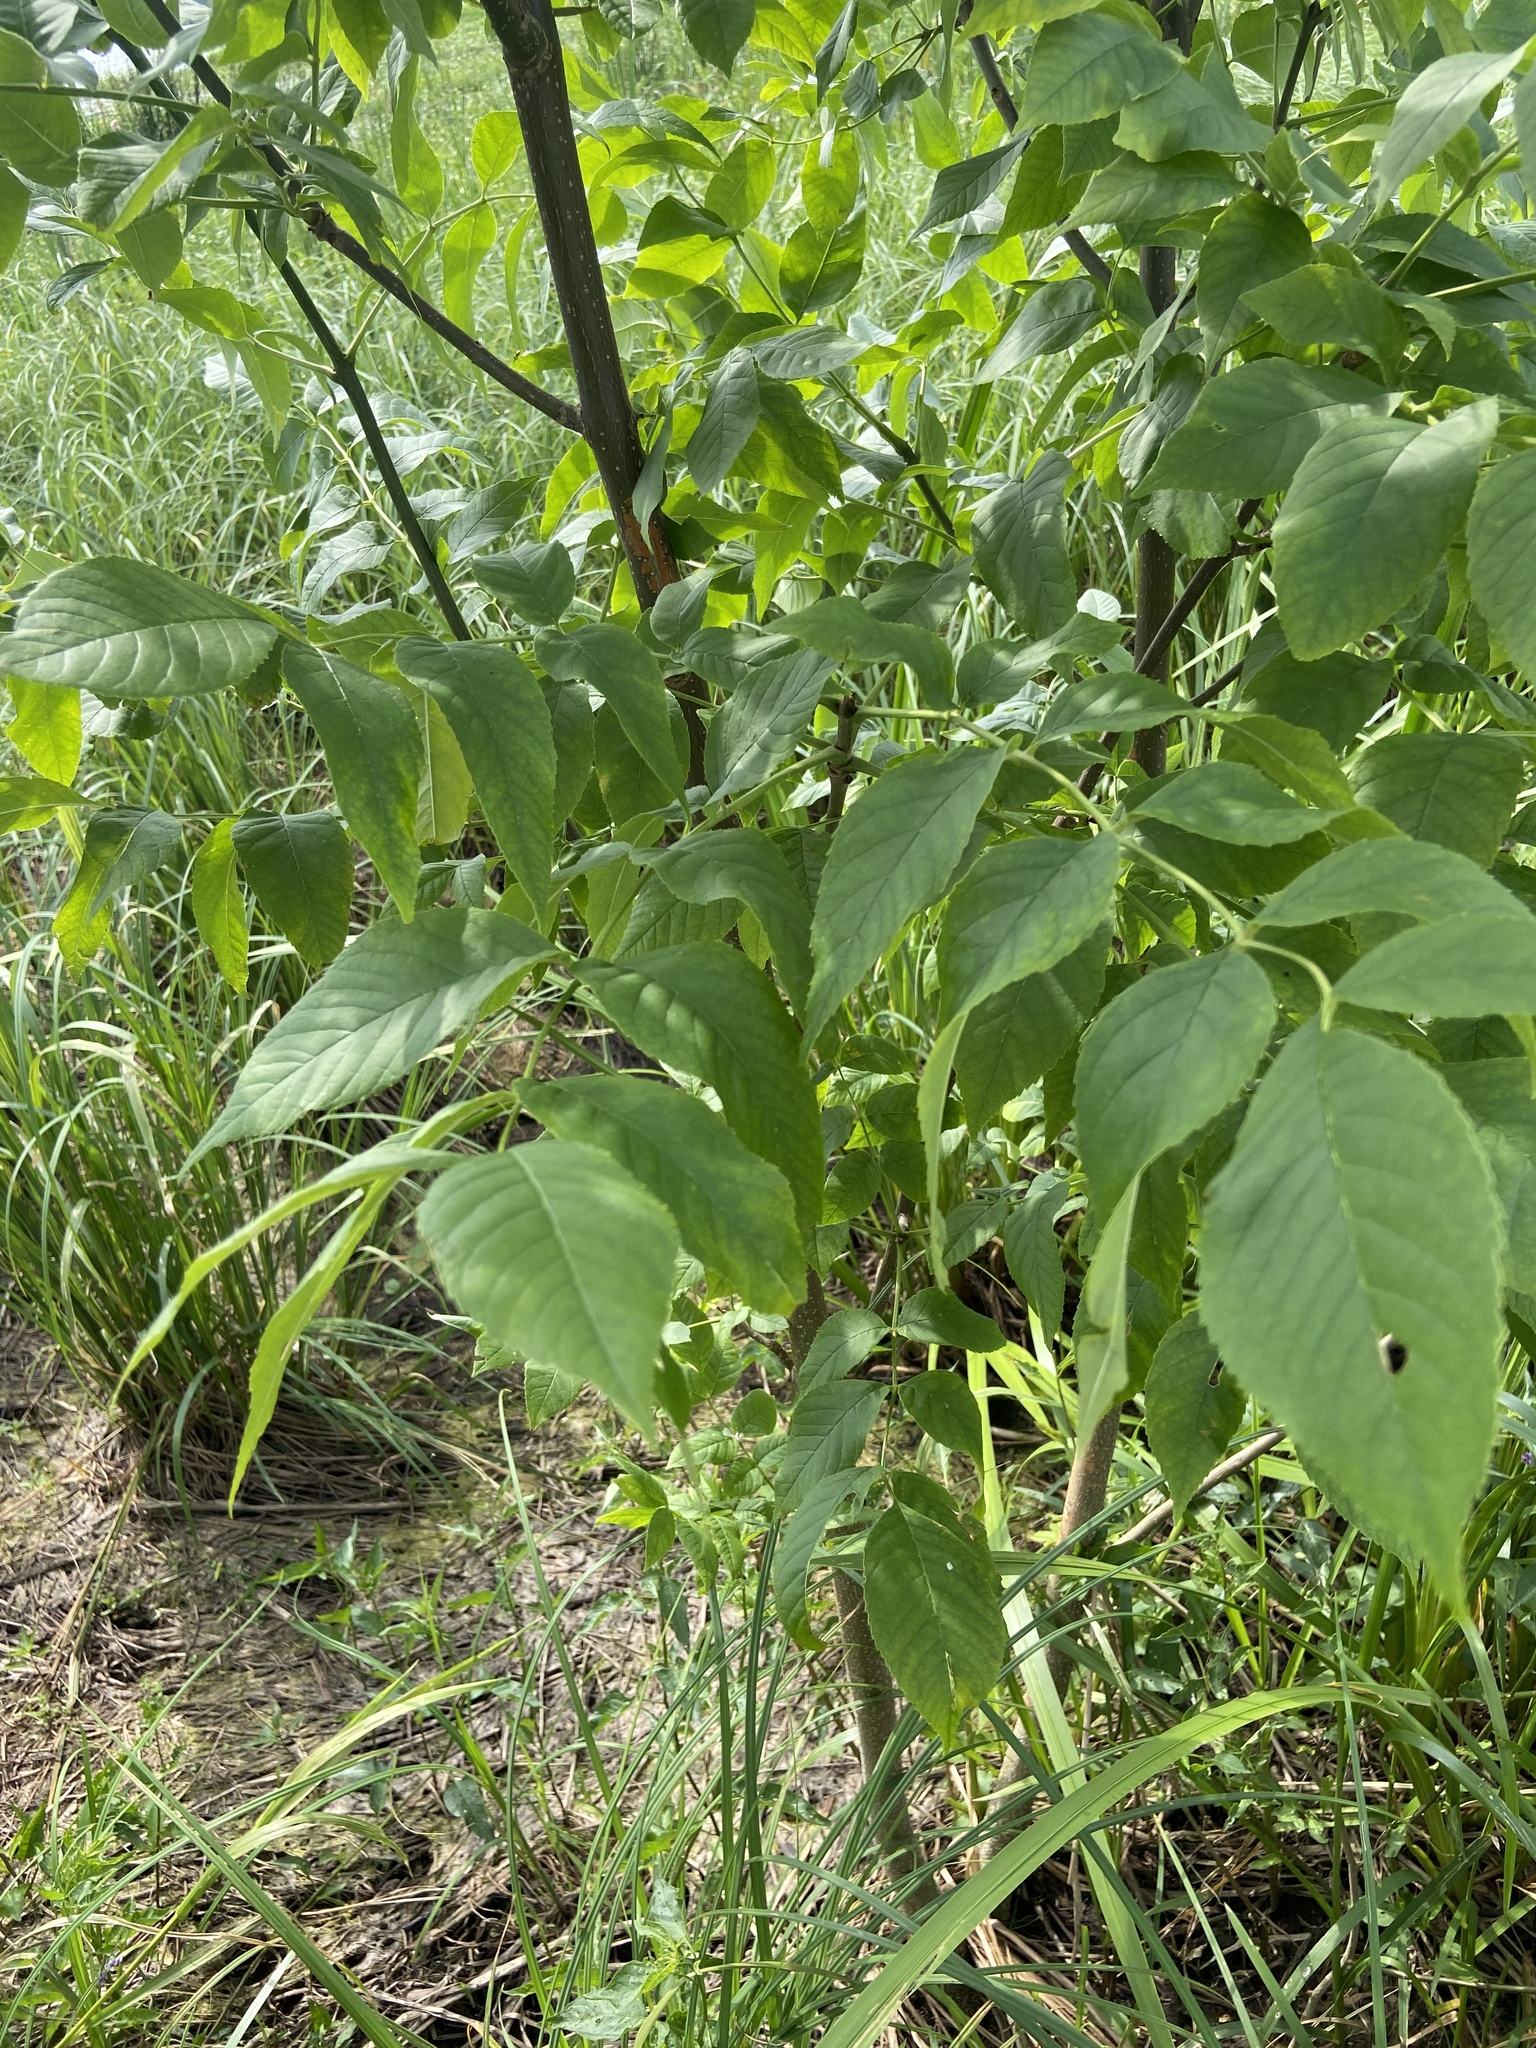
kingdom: Plantae
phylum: Tracheophyta
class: Magnoliopsida
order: Lamiales
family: Oleaceae
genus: Fraxinus
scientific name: Fraxinus pennsylvanica
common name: Green ash
